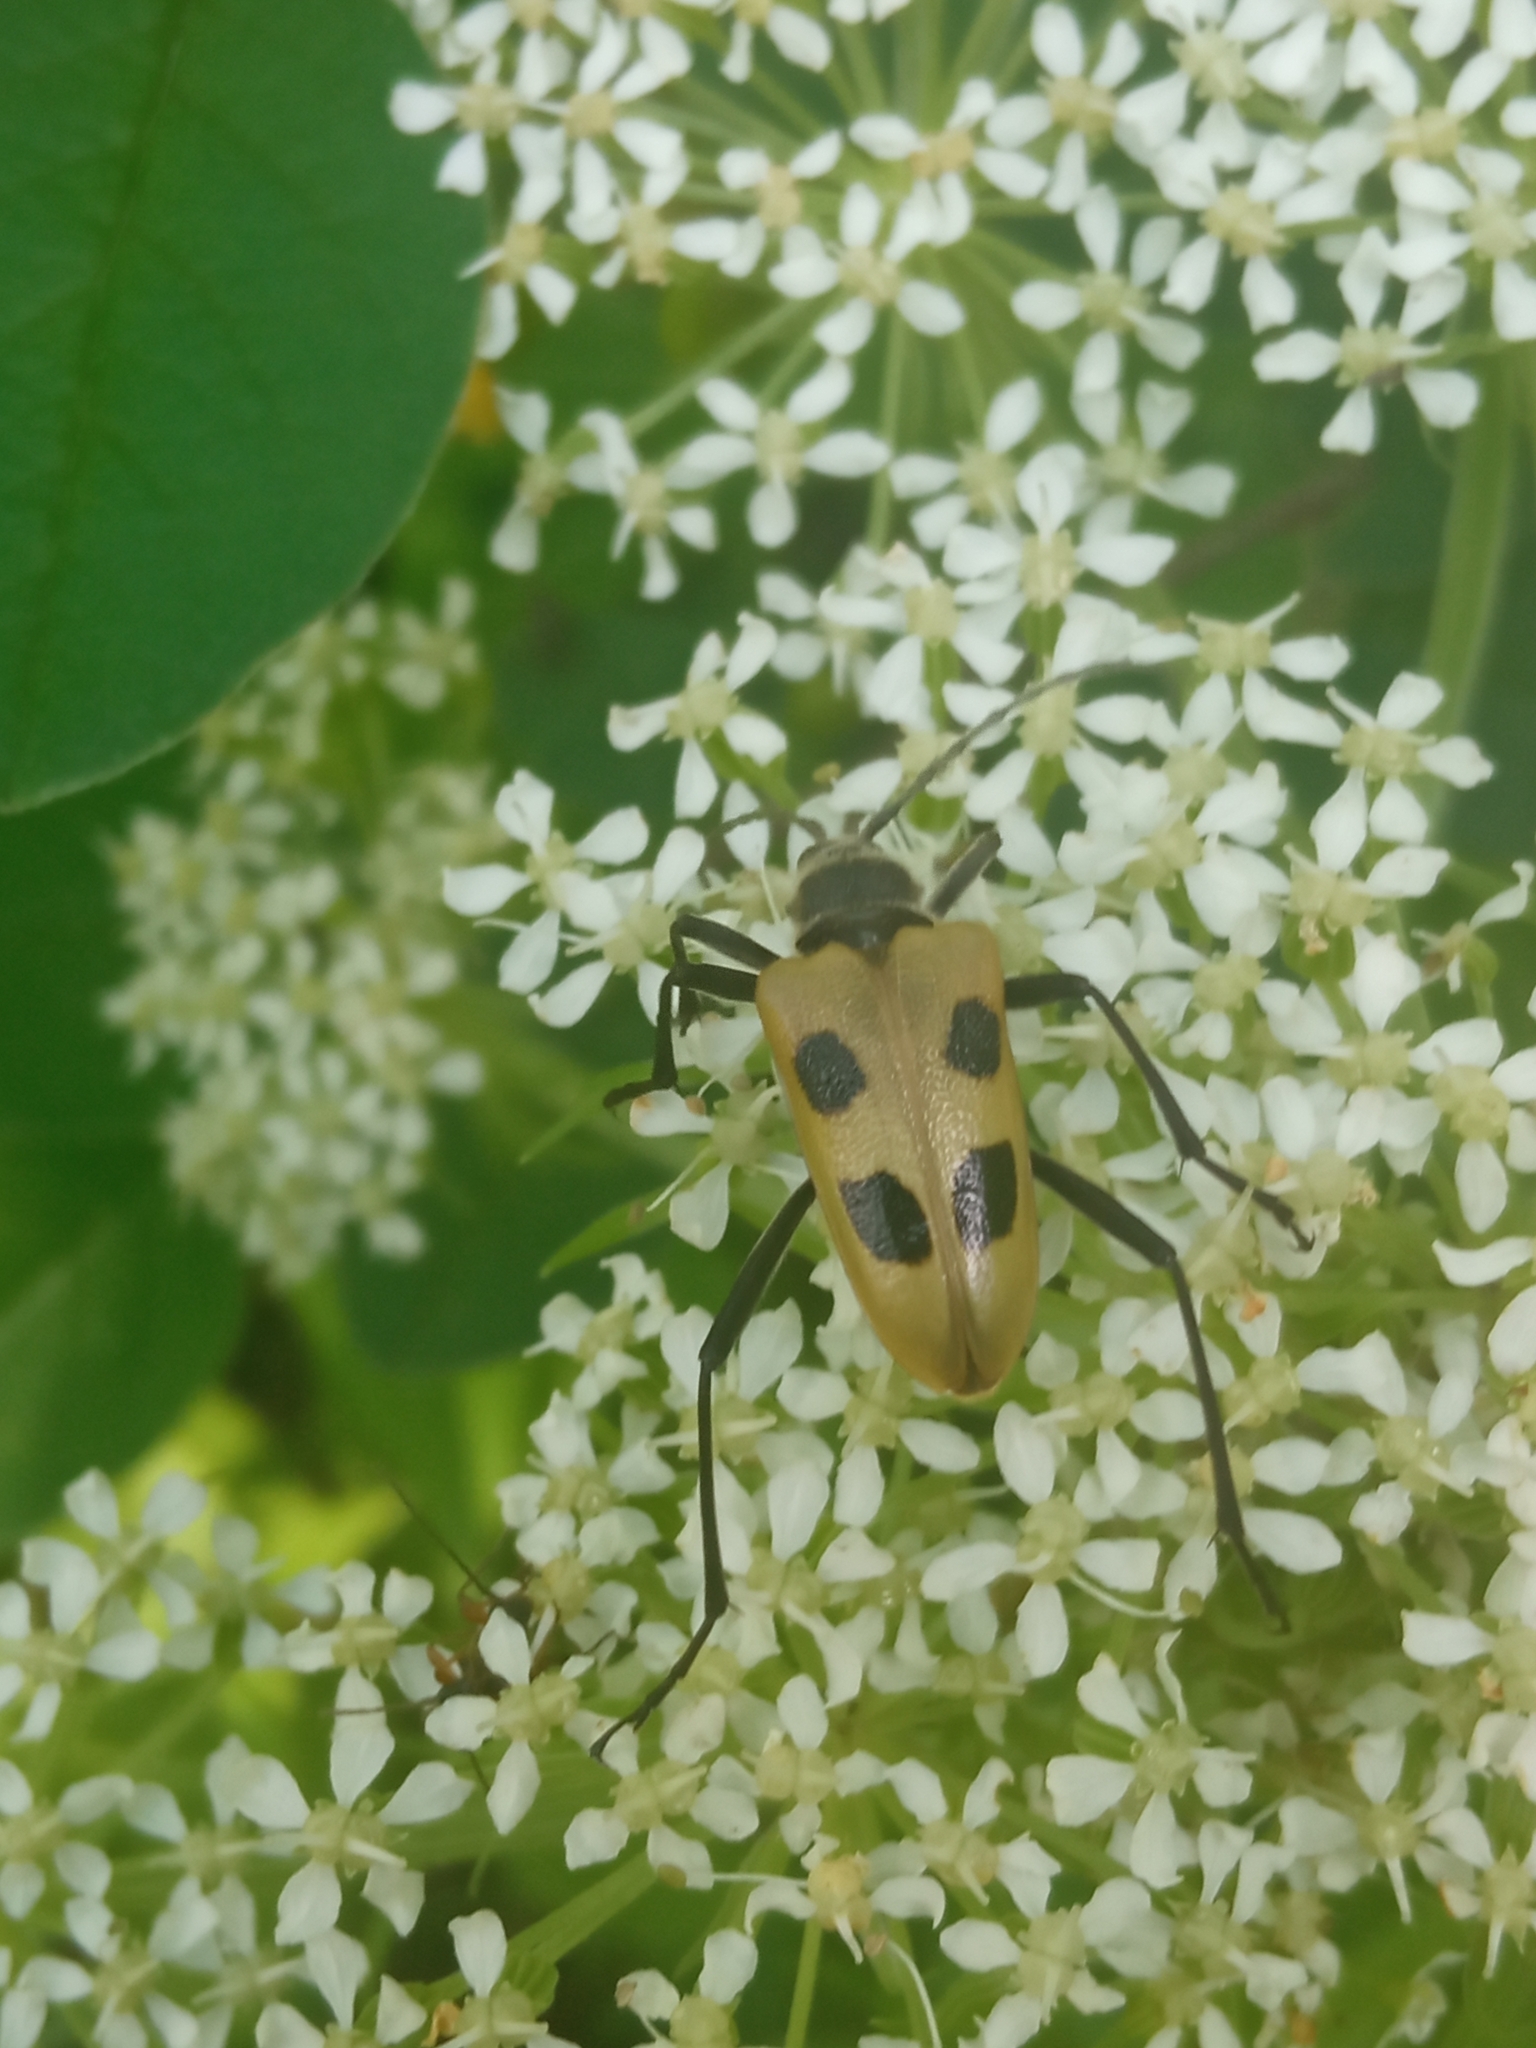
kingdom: Animalia
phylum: Arthropoda
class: Insecta
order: Coleoptera
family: Cerambycidae
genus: Pachyta
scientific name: Pachyta quadrimaculata
